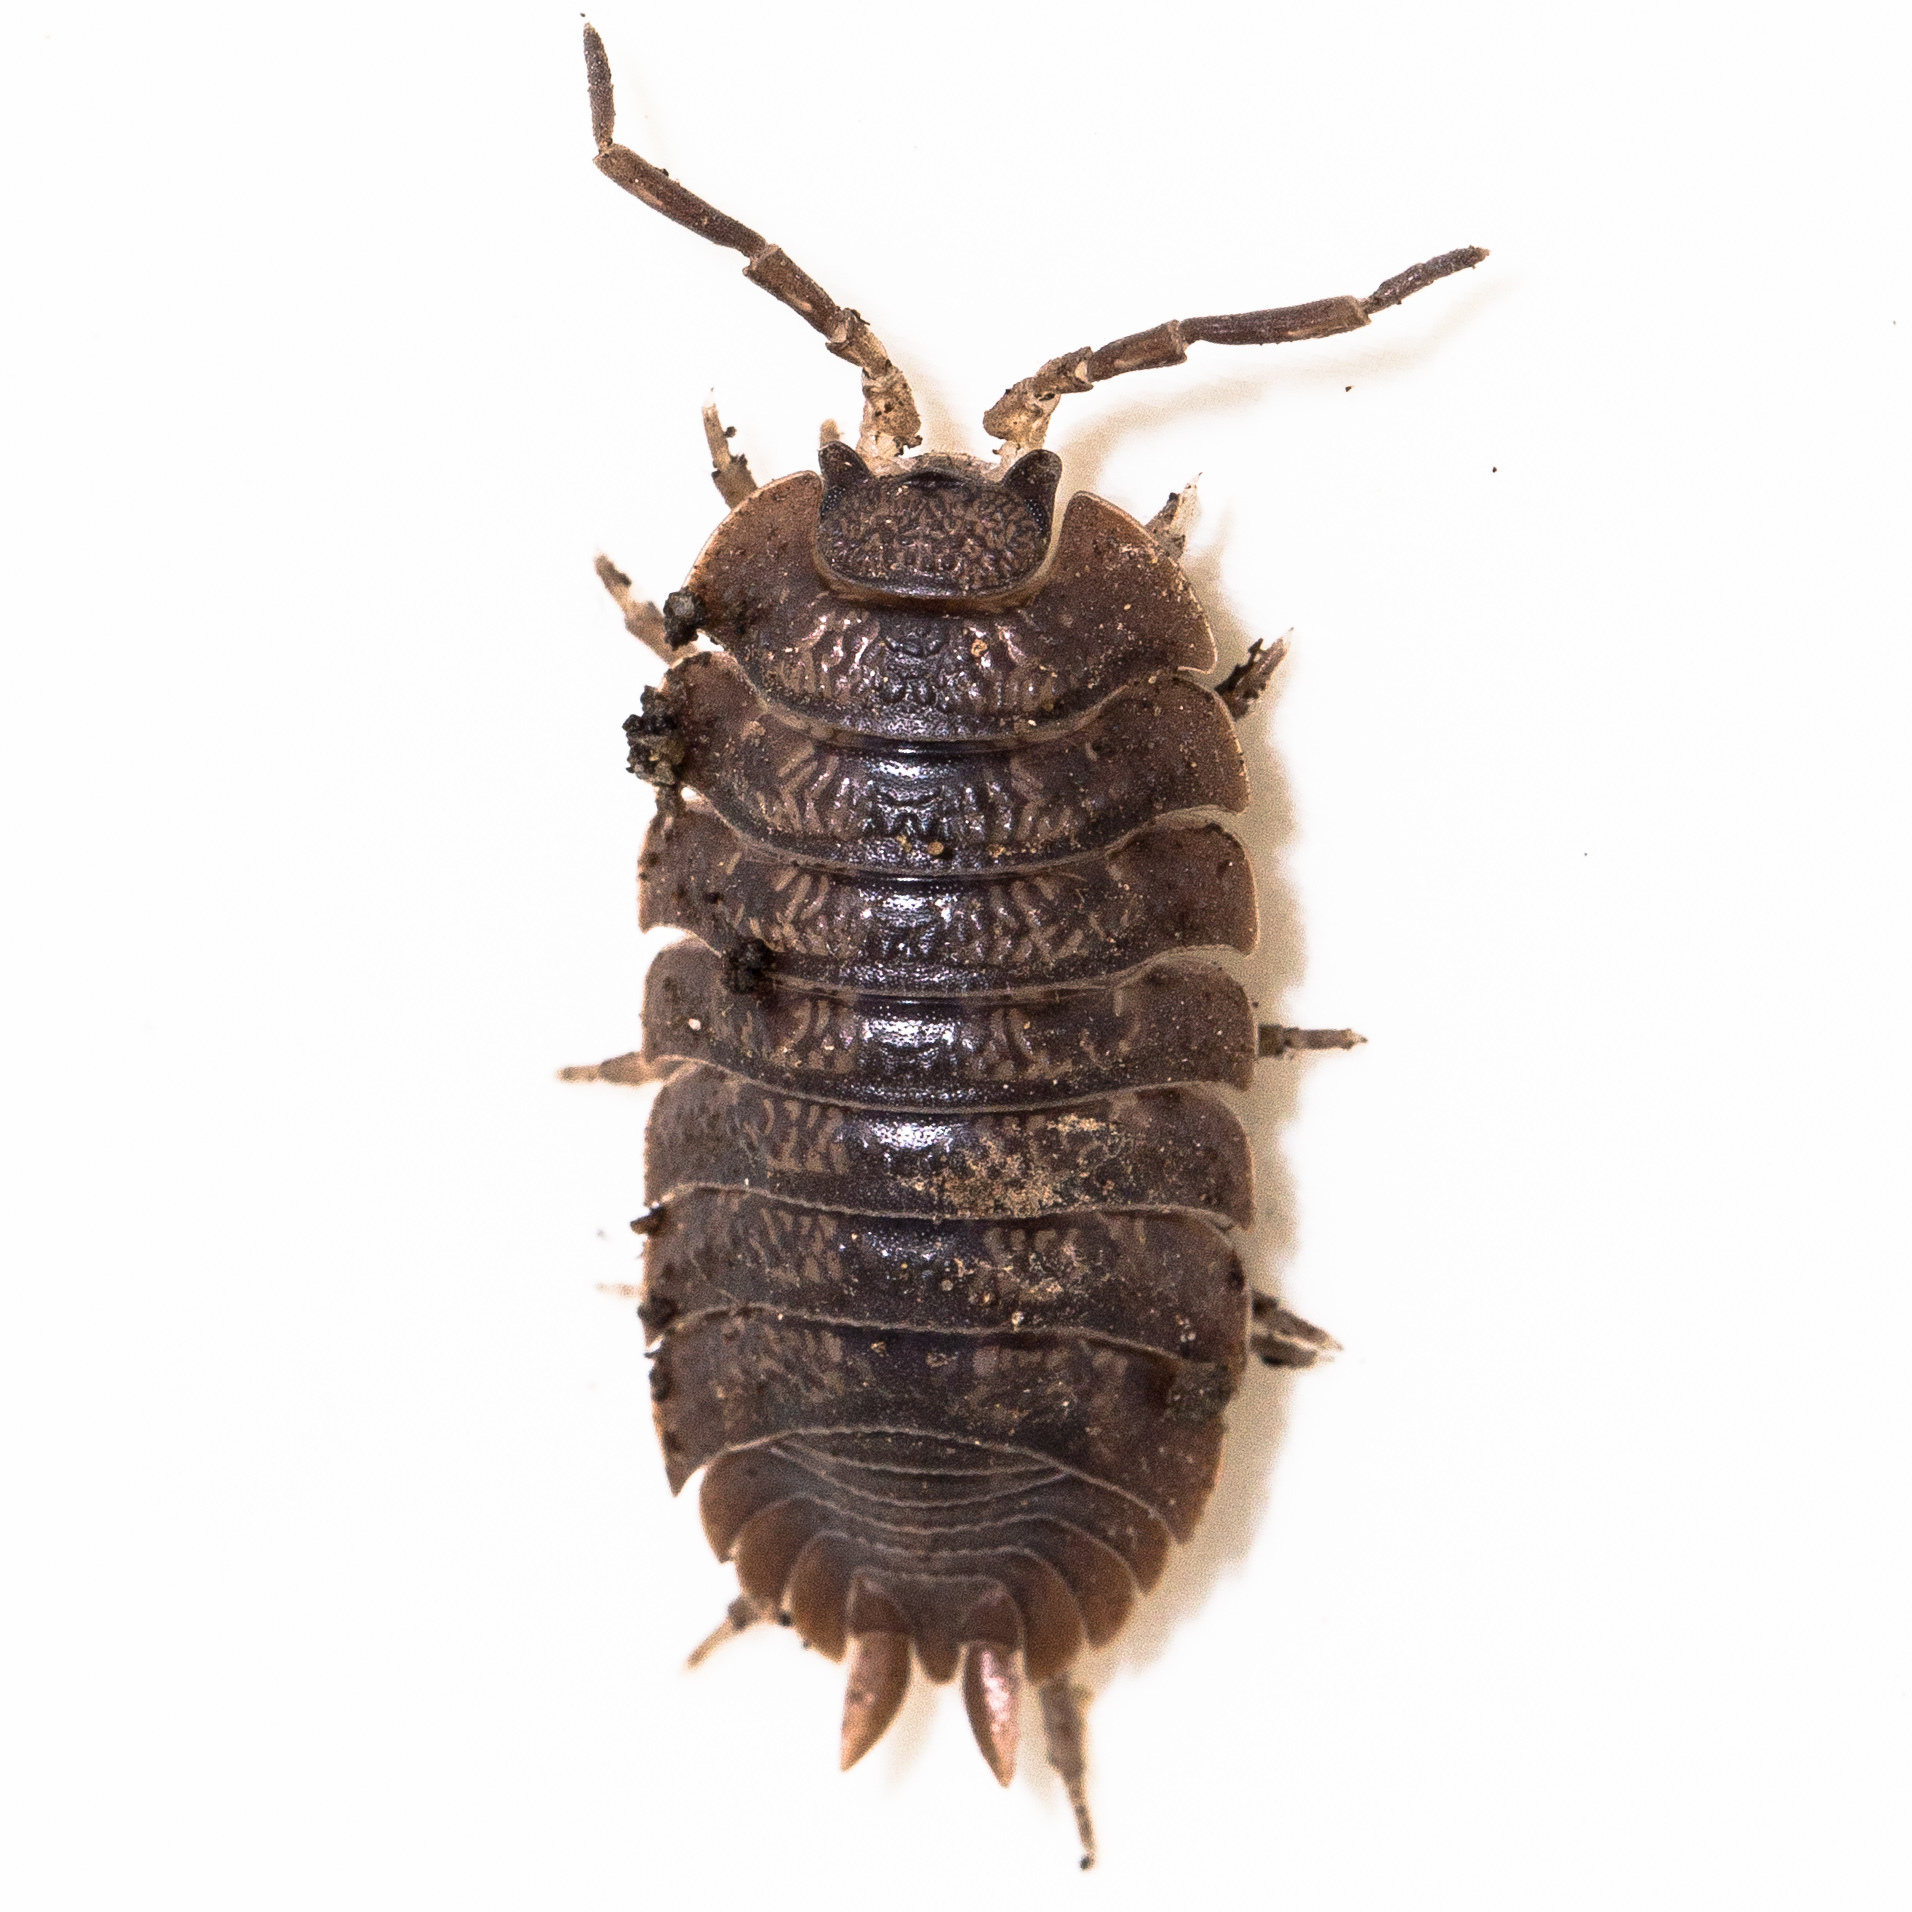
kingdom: Animalia
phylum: Arthropoda
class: Malacostraca
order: Isopoda
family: Porcellionidae
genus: Porcellio
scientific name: Porcellio dilatatus
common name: Isopod
